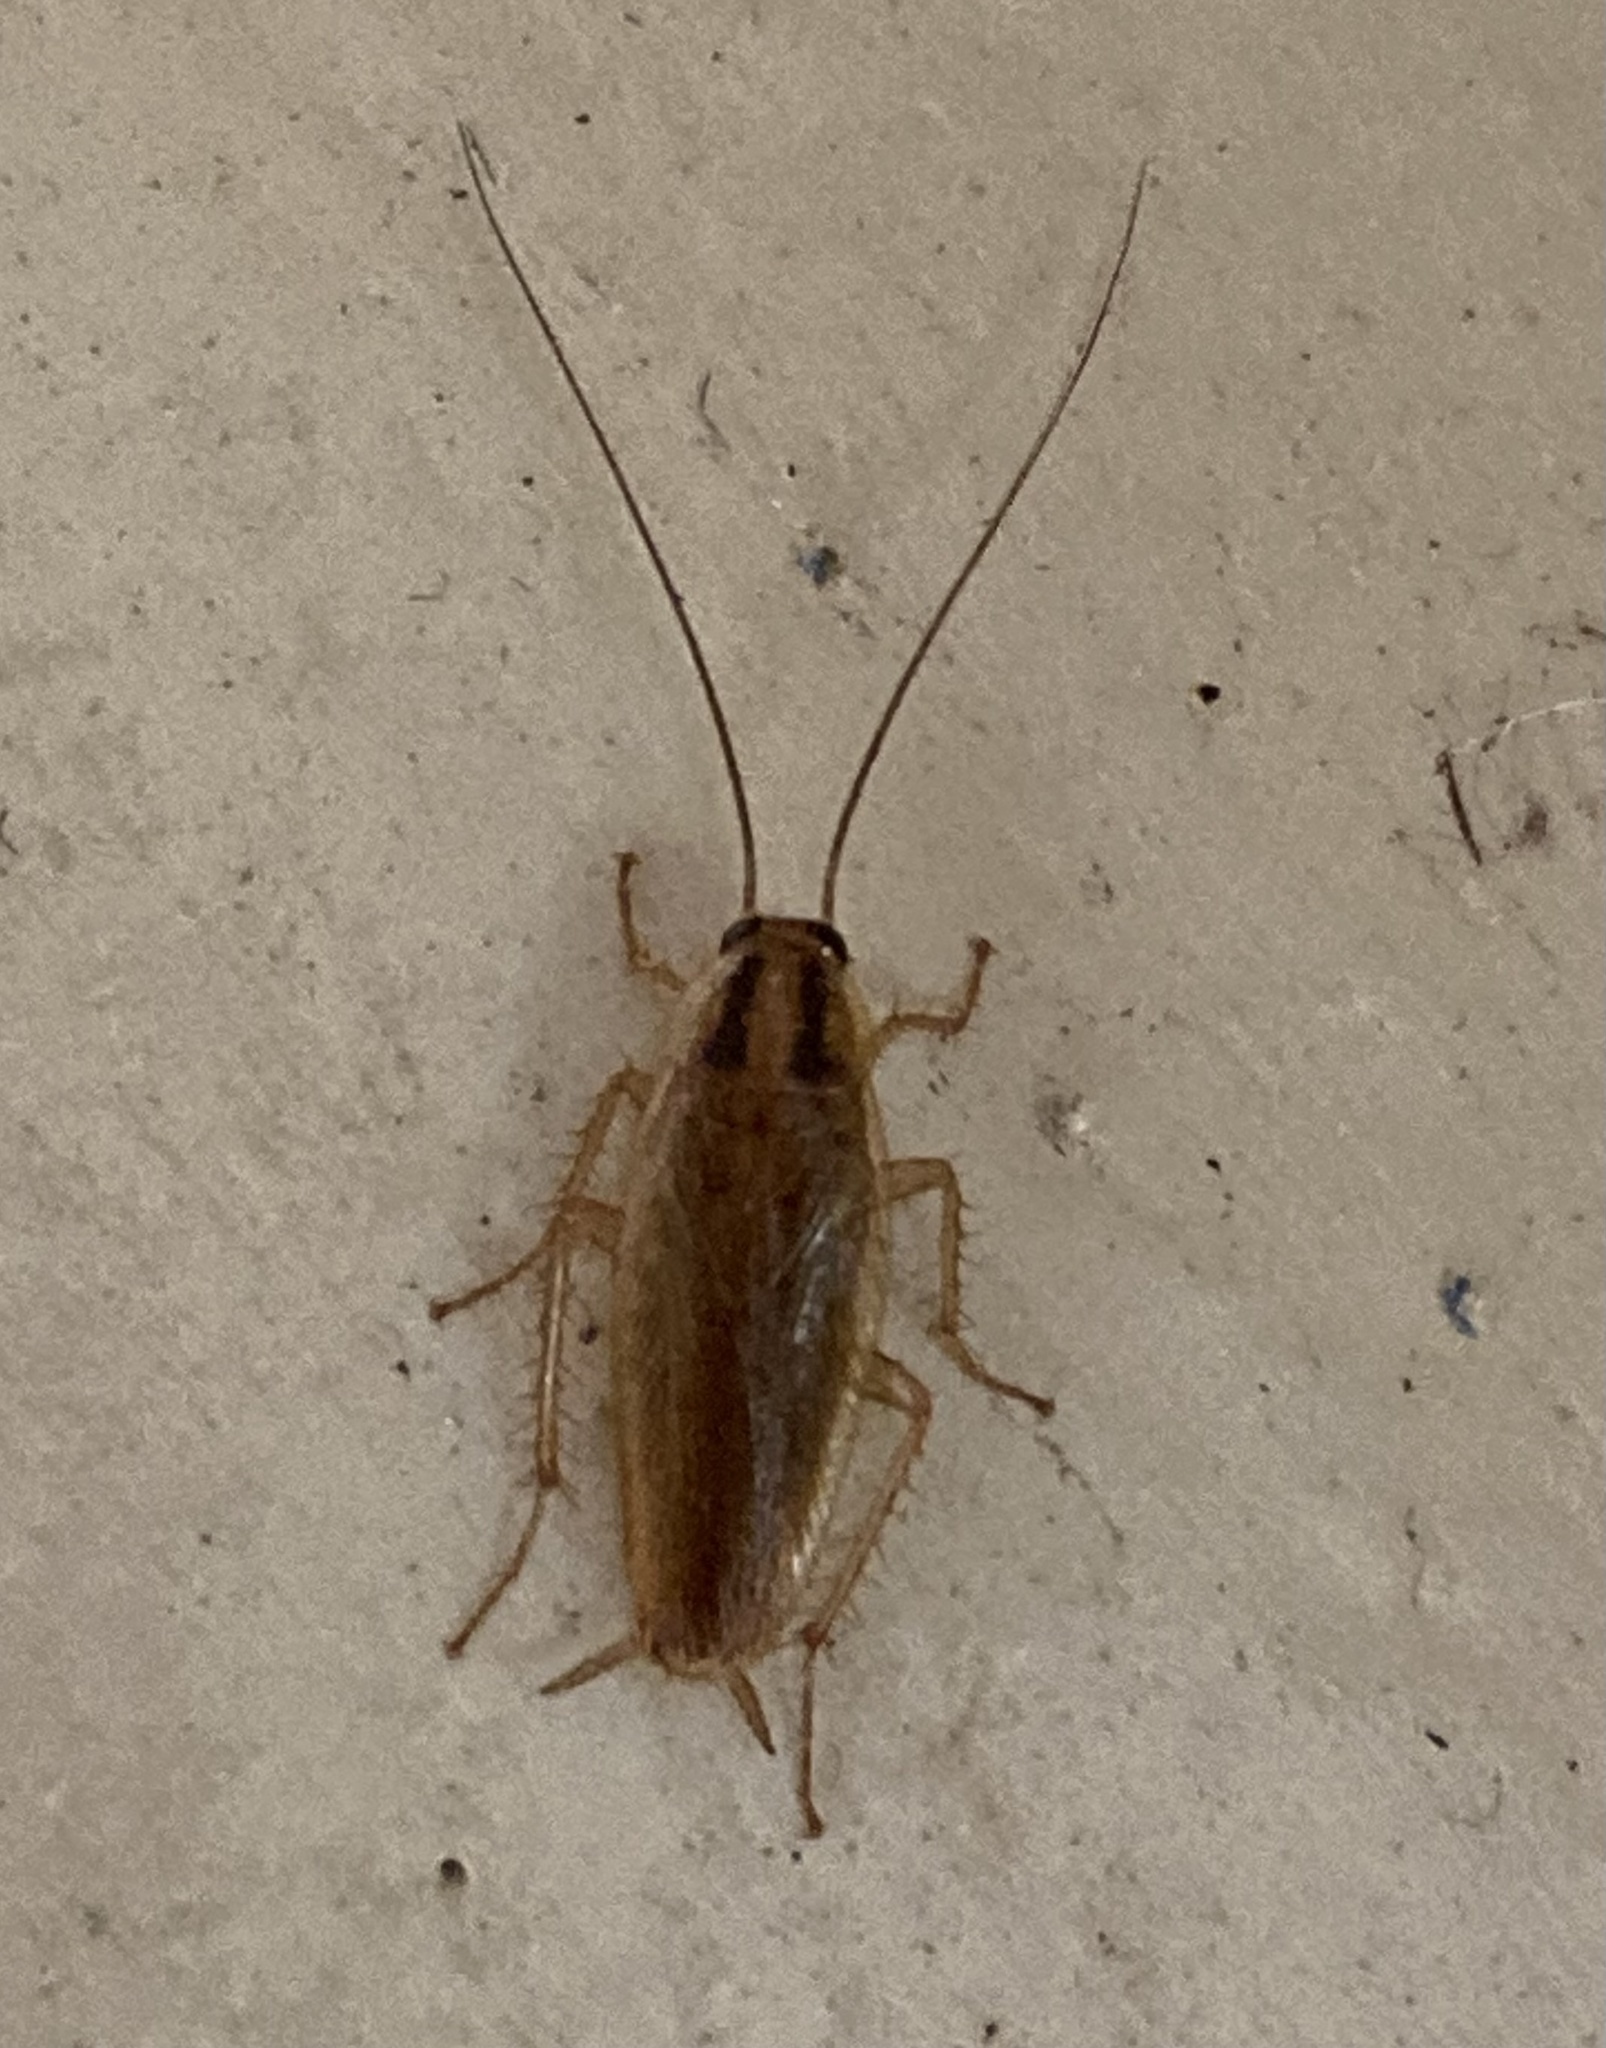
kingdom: Animalia
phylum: Arthropoda
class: Insecta
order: Blattodea
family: Ectobiidae
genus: Blattella
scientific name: Blattella germanica
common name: German cockroach
